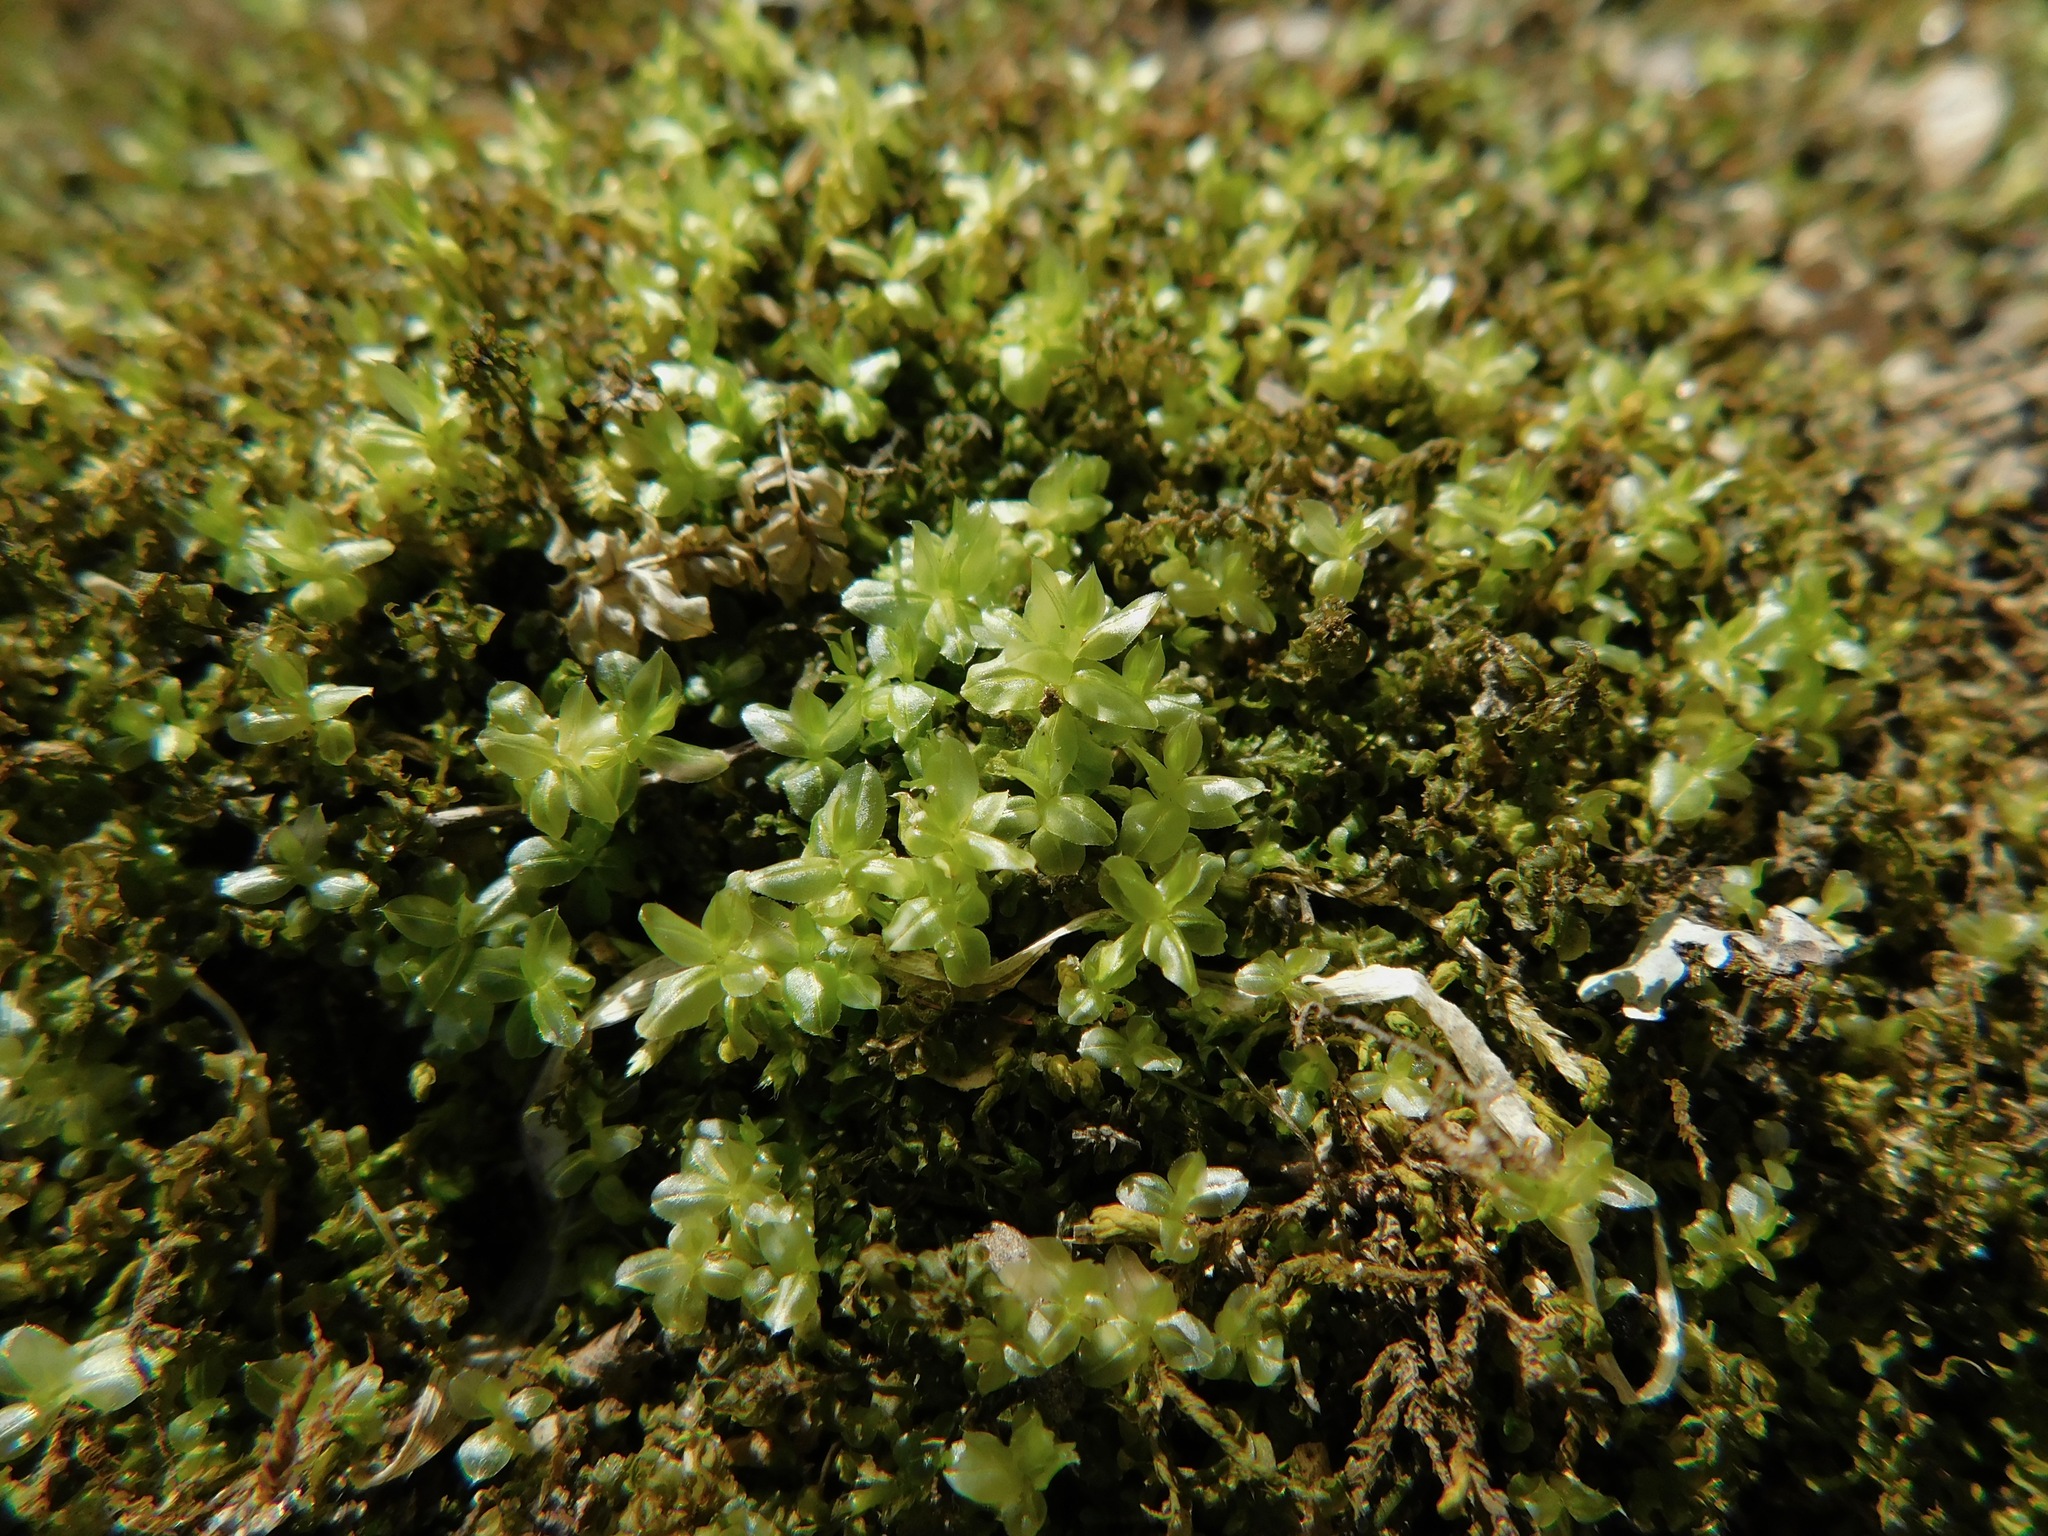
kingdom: Plantae
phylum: Bryophyta
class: Bryopsida
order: Bryales
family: Mniaceae
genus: Plagiomnium
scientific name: Plagiomnium ciliare
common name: Toothed leafy moss
